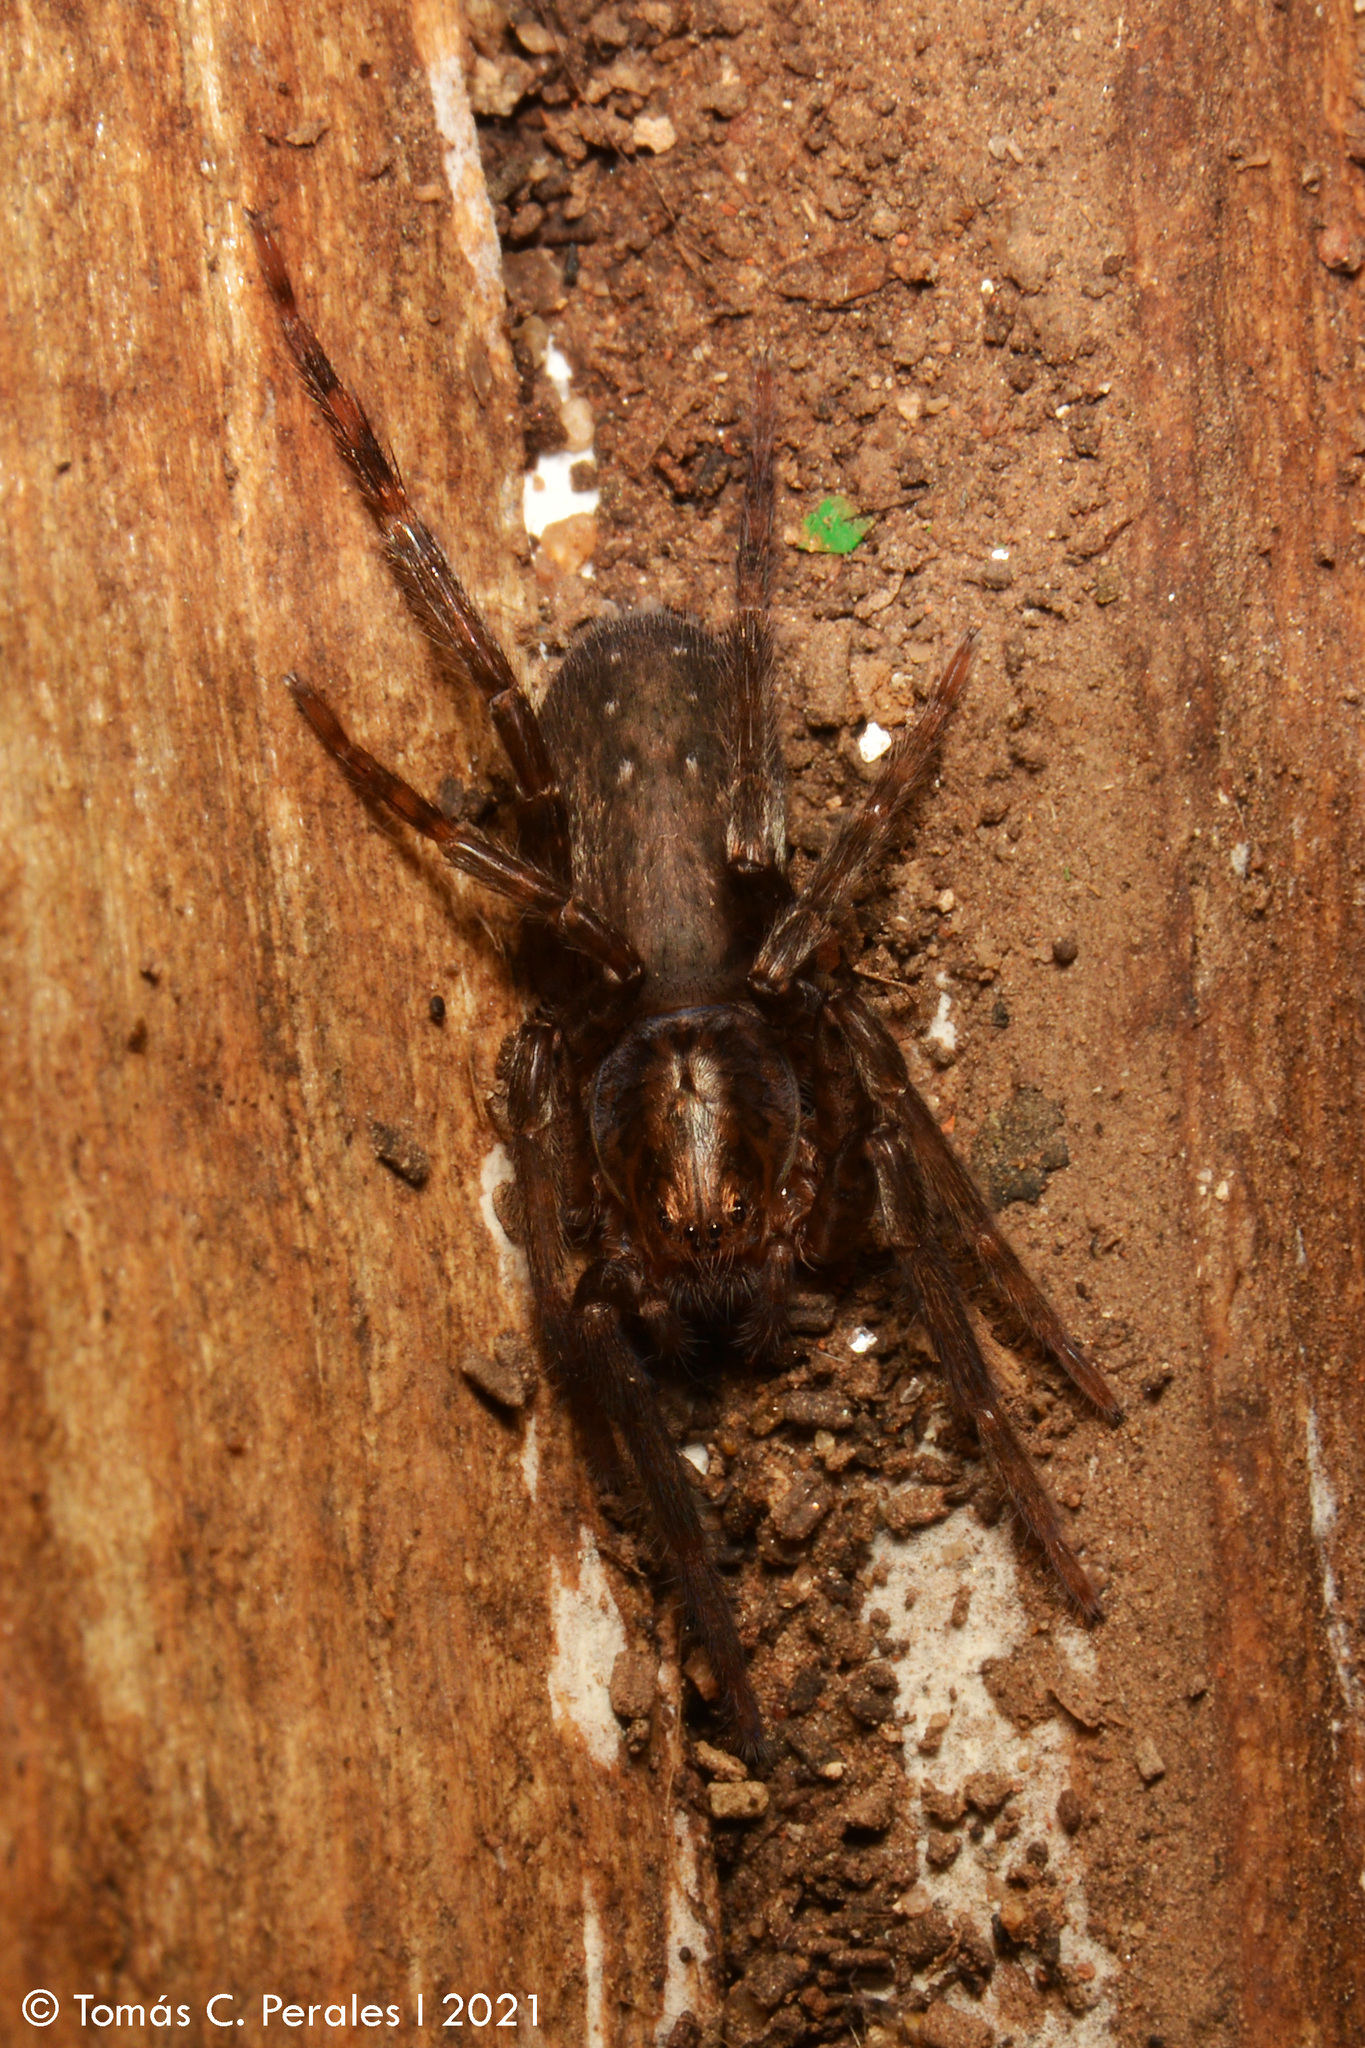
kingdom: Animalia
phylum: Arthropoda
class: Arachnida
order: Araneae
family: Ctenidae
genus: Asthenoctenus
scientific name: Asthenoctenus borellii
